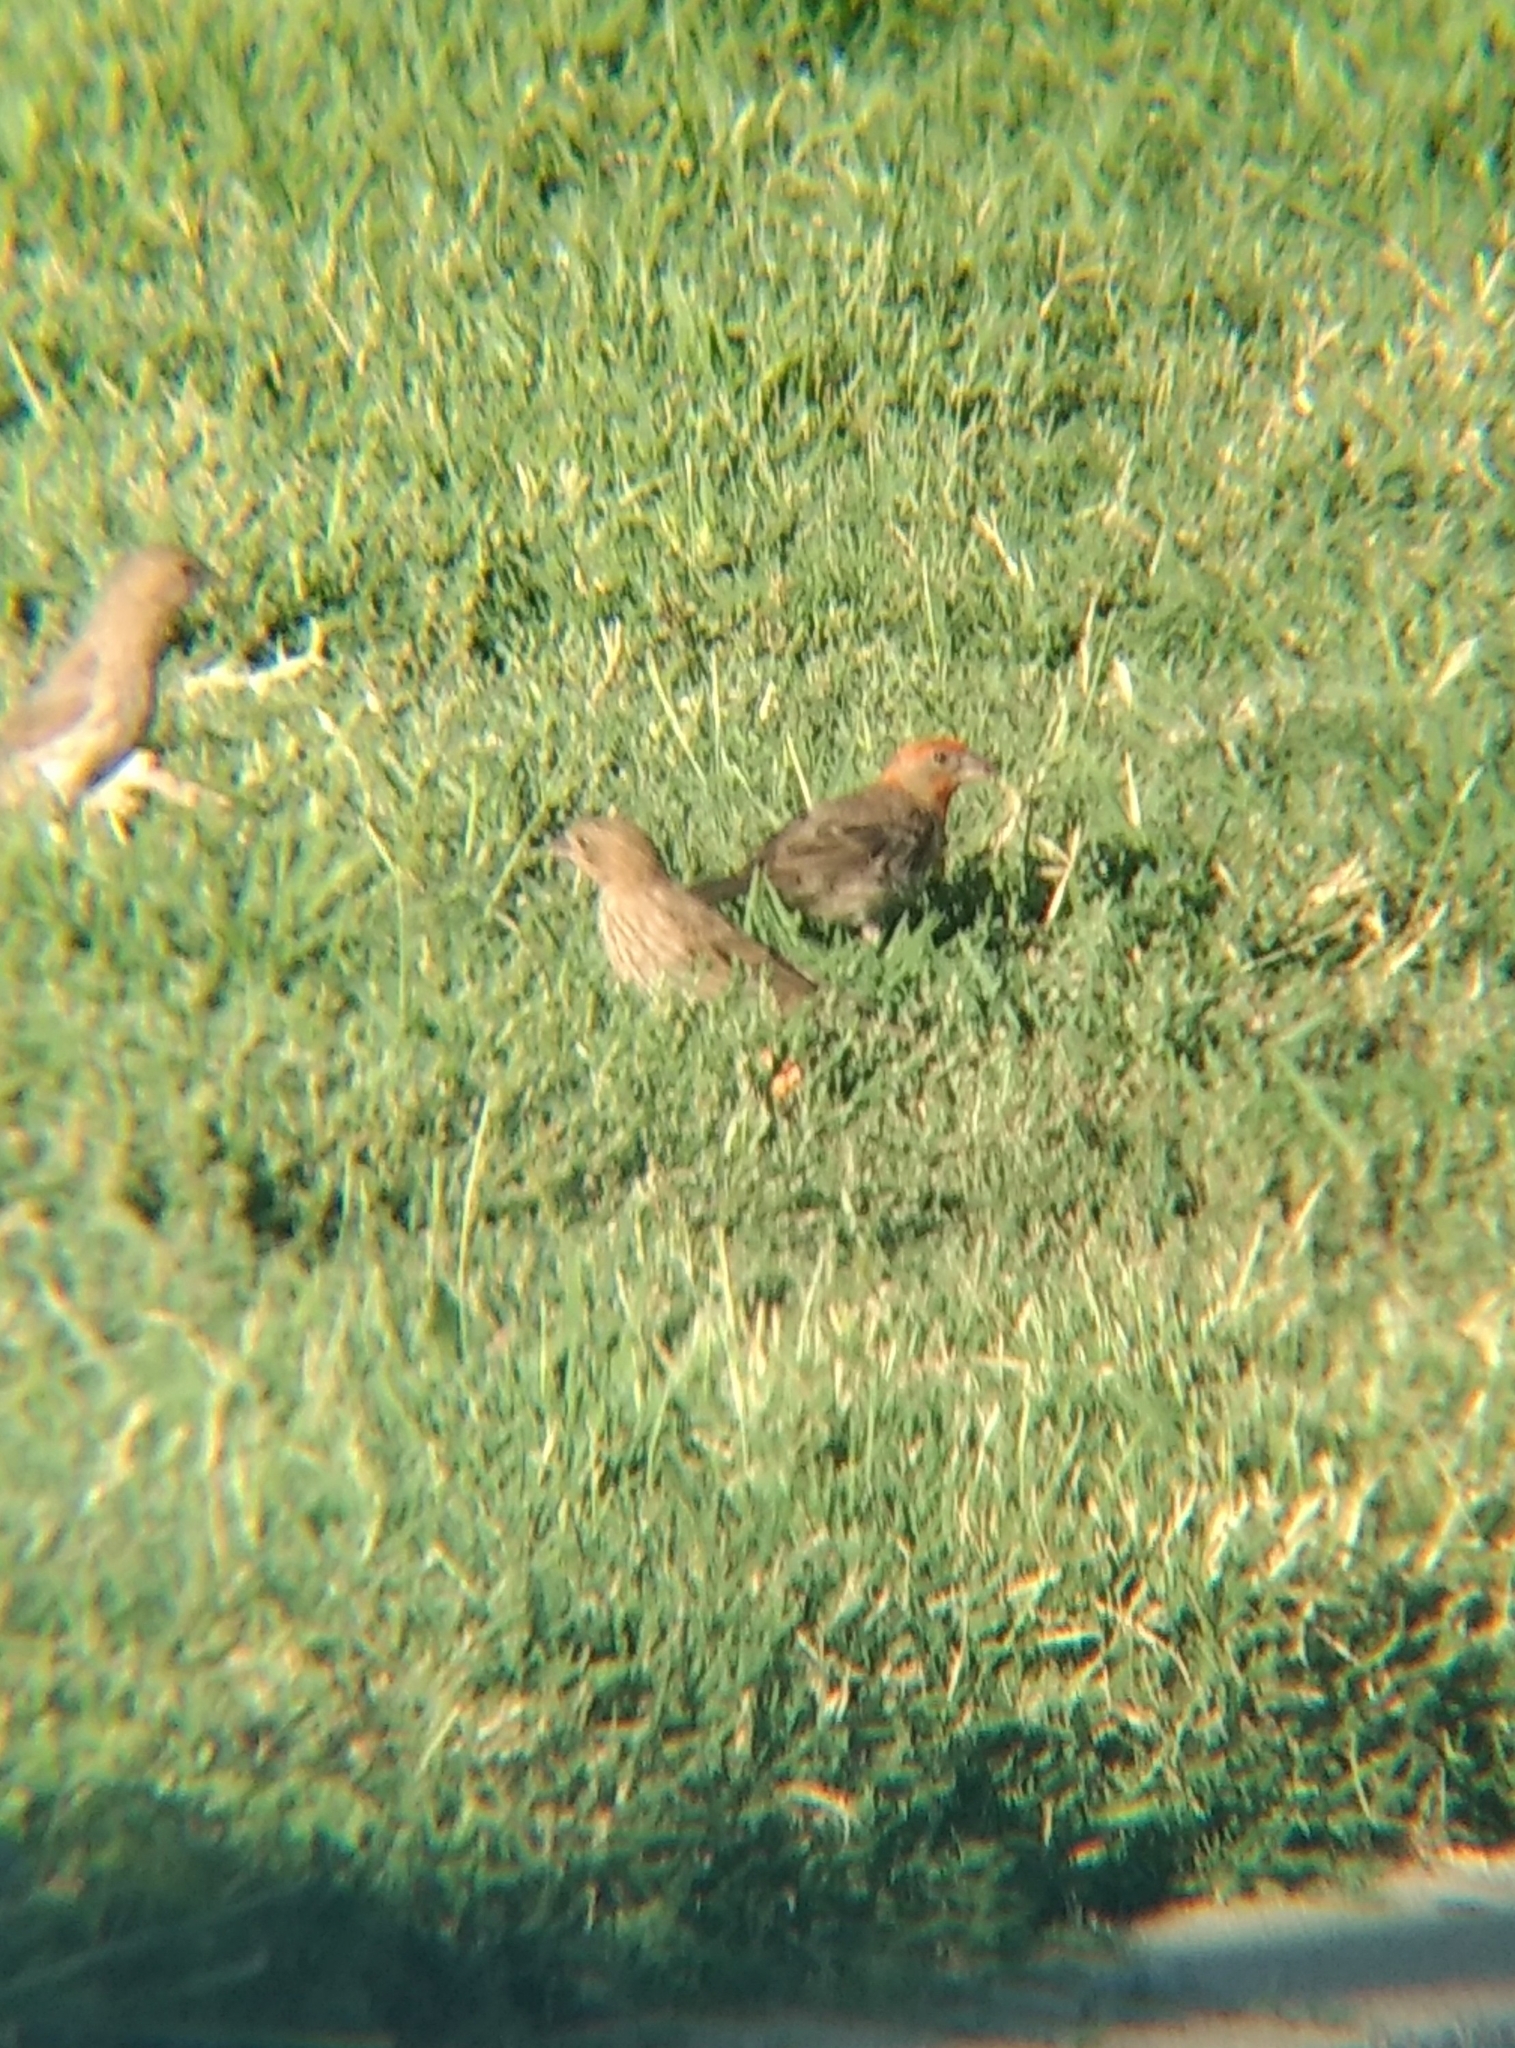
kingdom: Animalia
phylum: Chordata
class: Aves
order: Passeriformes
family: Fringillidae
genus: Haemorhous
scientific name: Haemorhous mexicanus
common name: House finch
